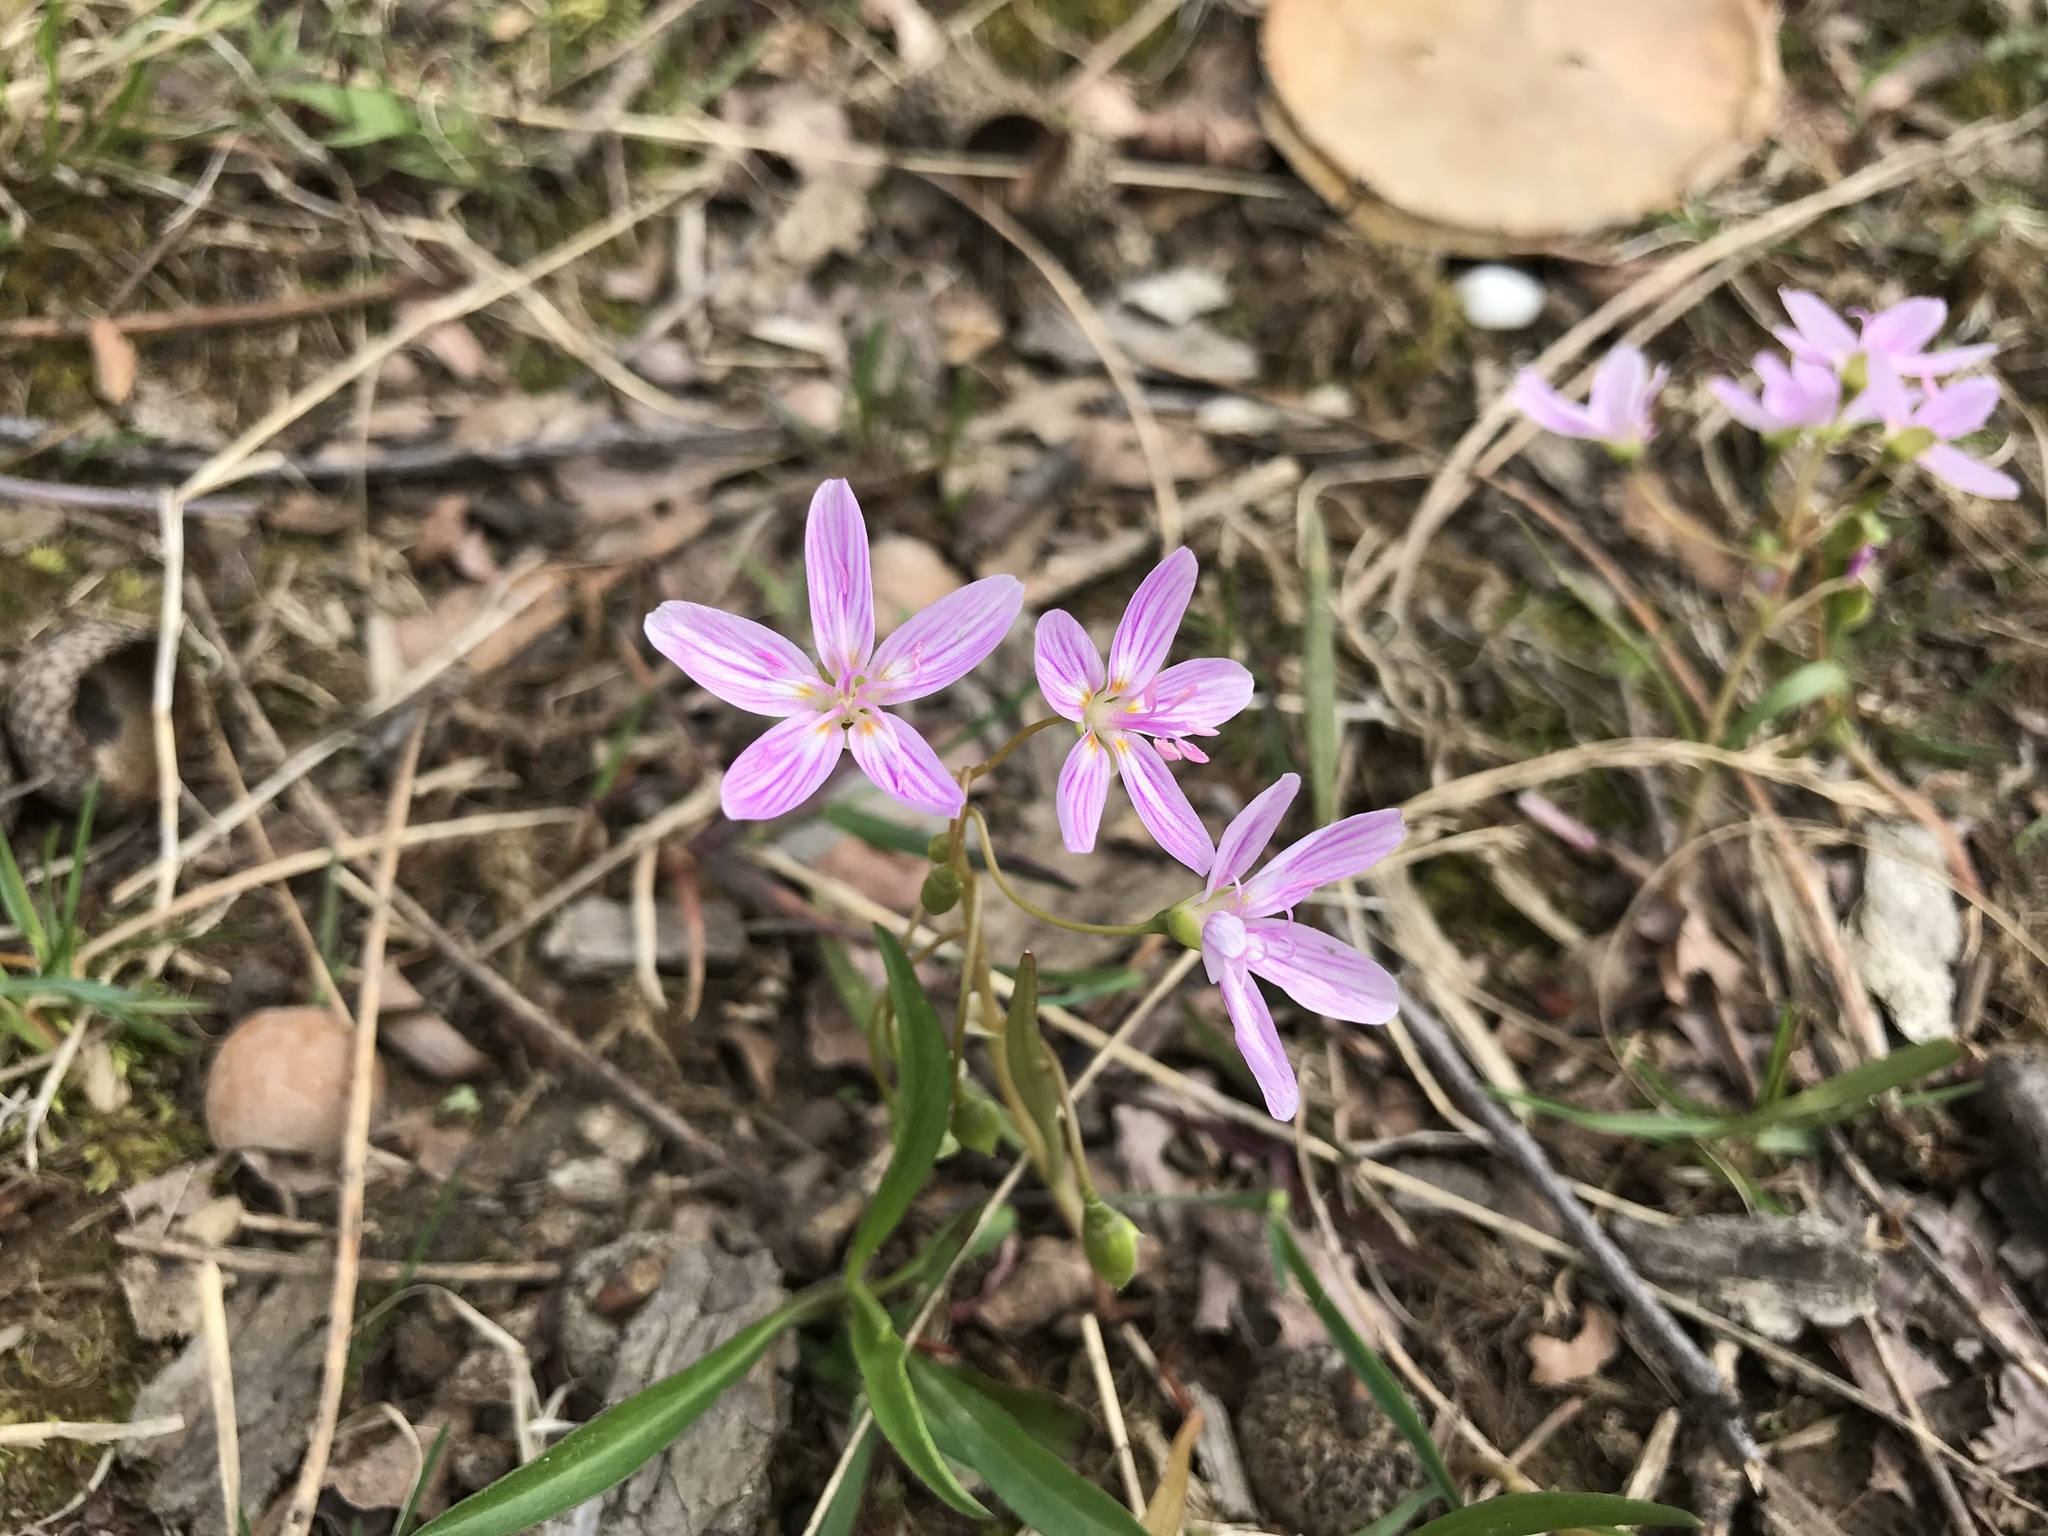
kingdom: Plantae
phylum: Tracheophyta
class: Magnoliopsida
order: Caryophyllales
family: Montiaceae
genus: Claytonia
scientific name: Claytonia virginica
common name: Virginia springbeauty
